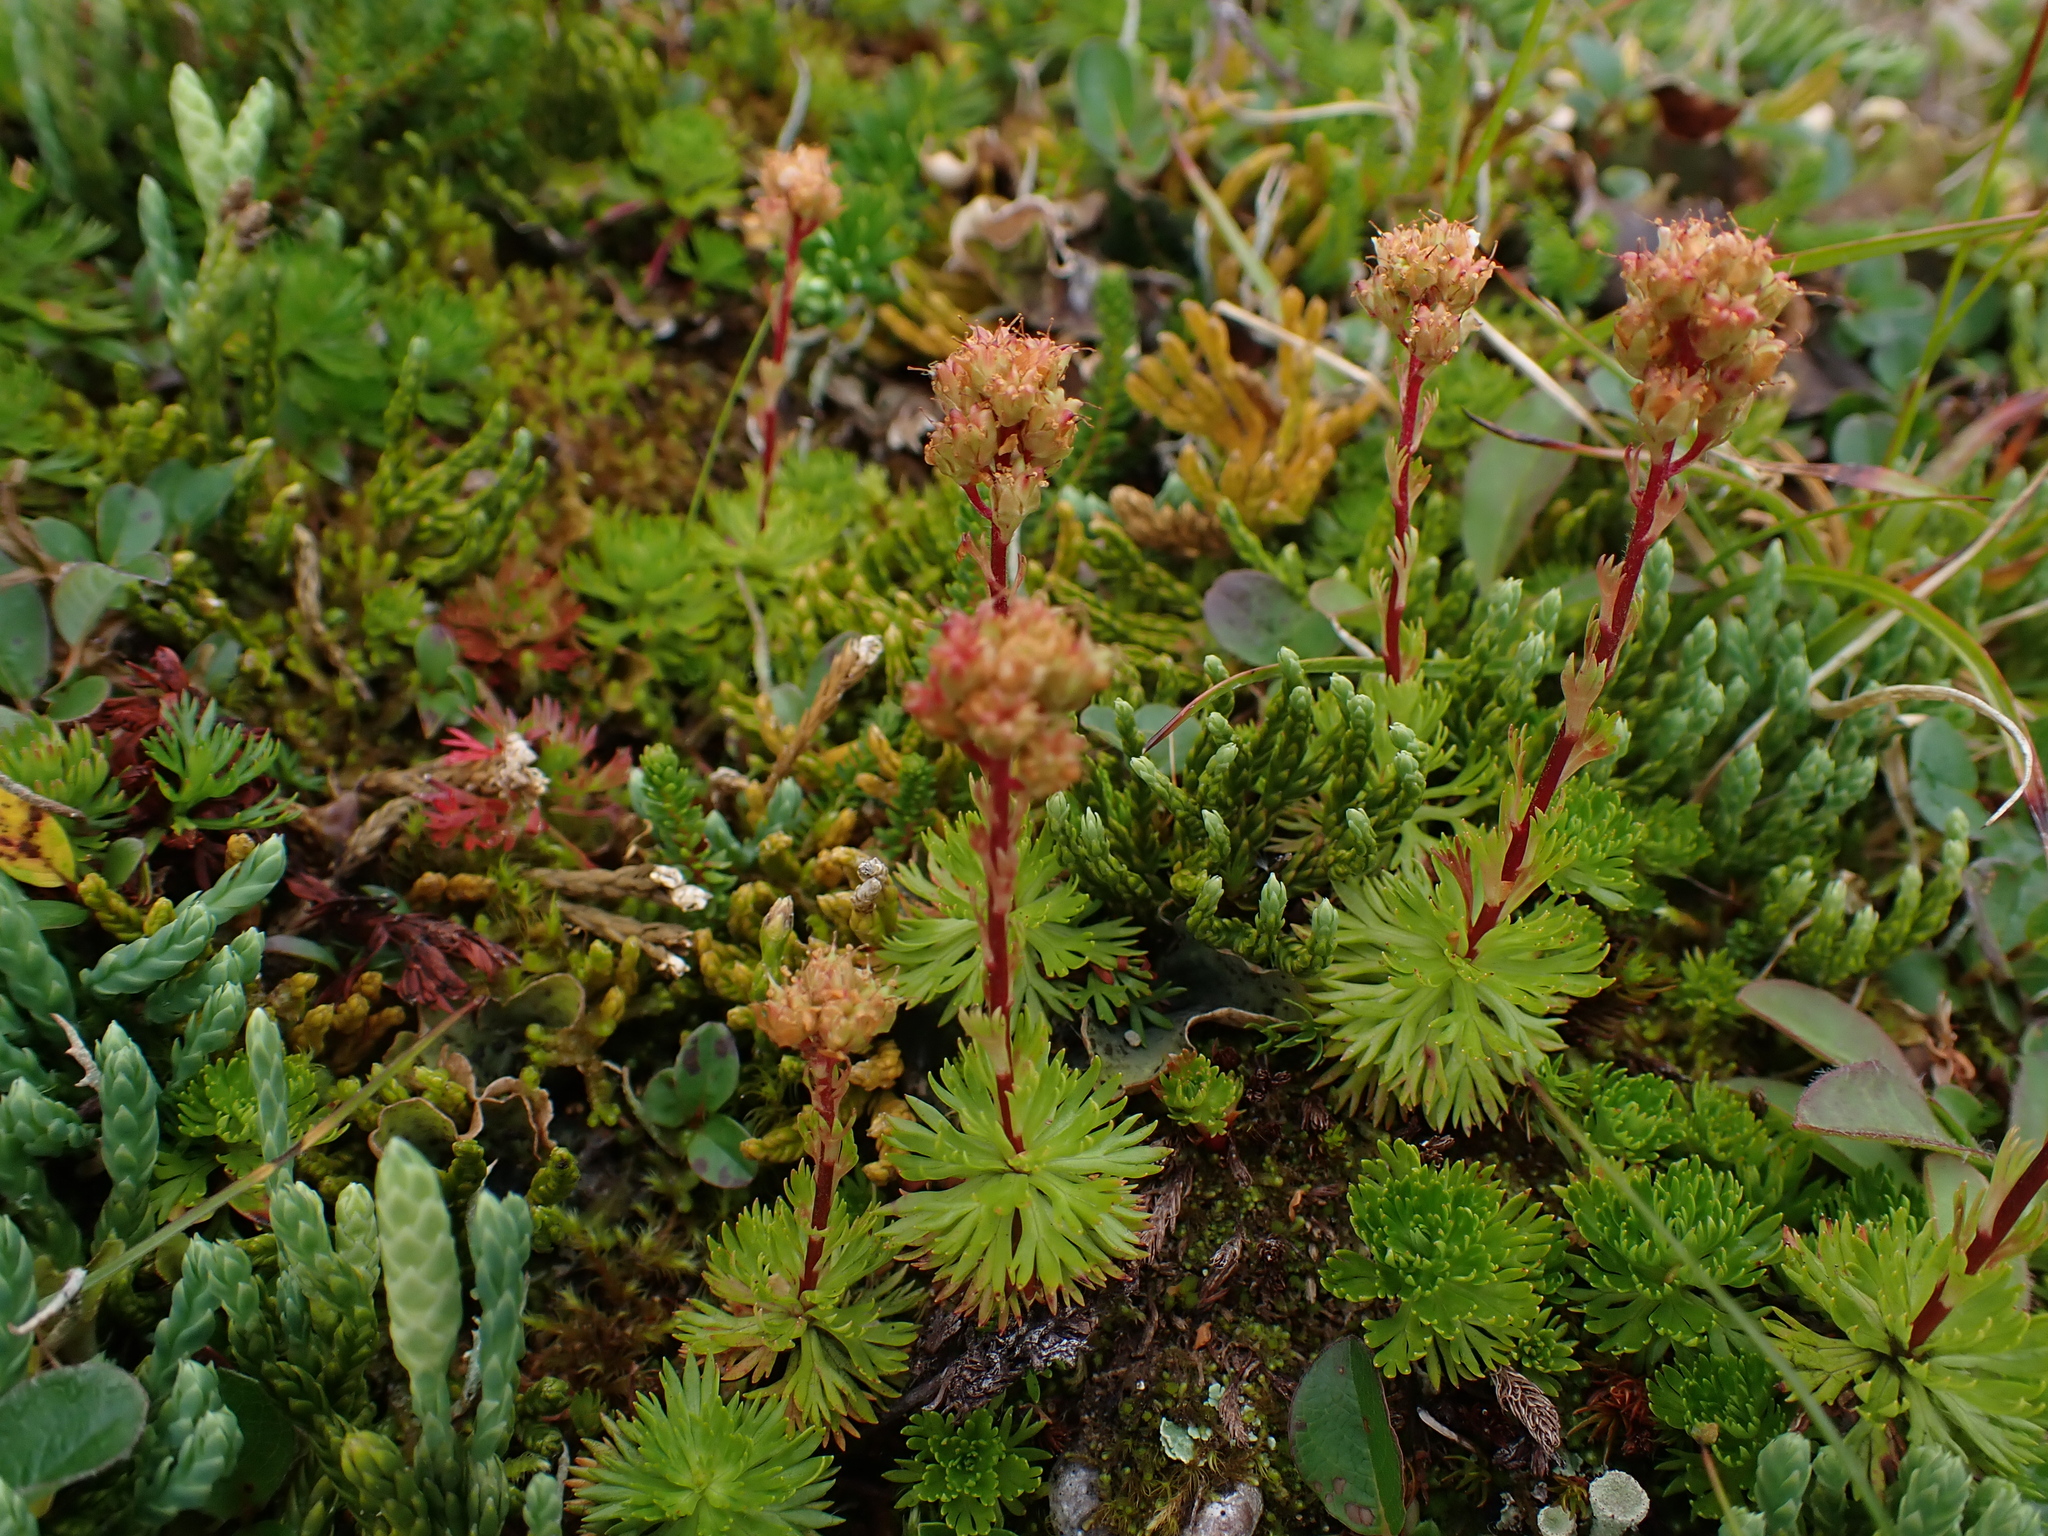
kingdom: Plantae
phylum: Tracheophyta
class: Magnoliopsida
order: Rosales
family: Rosaceae
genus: Luetkea
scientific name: Luetkea pectinata
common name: Partridgefoot
